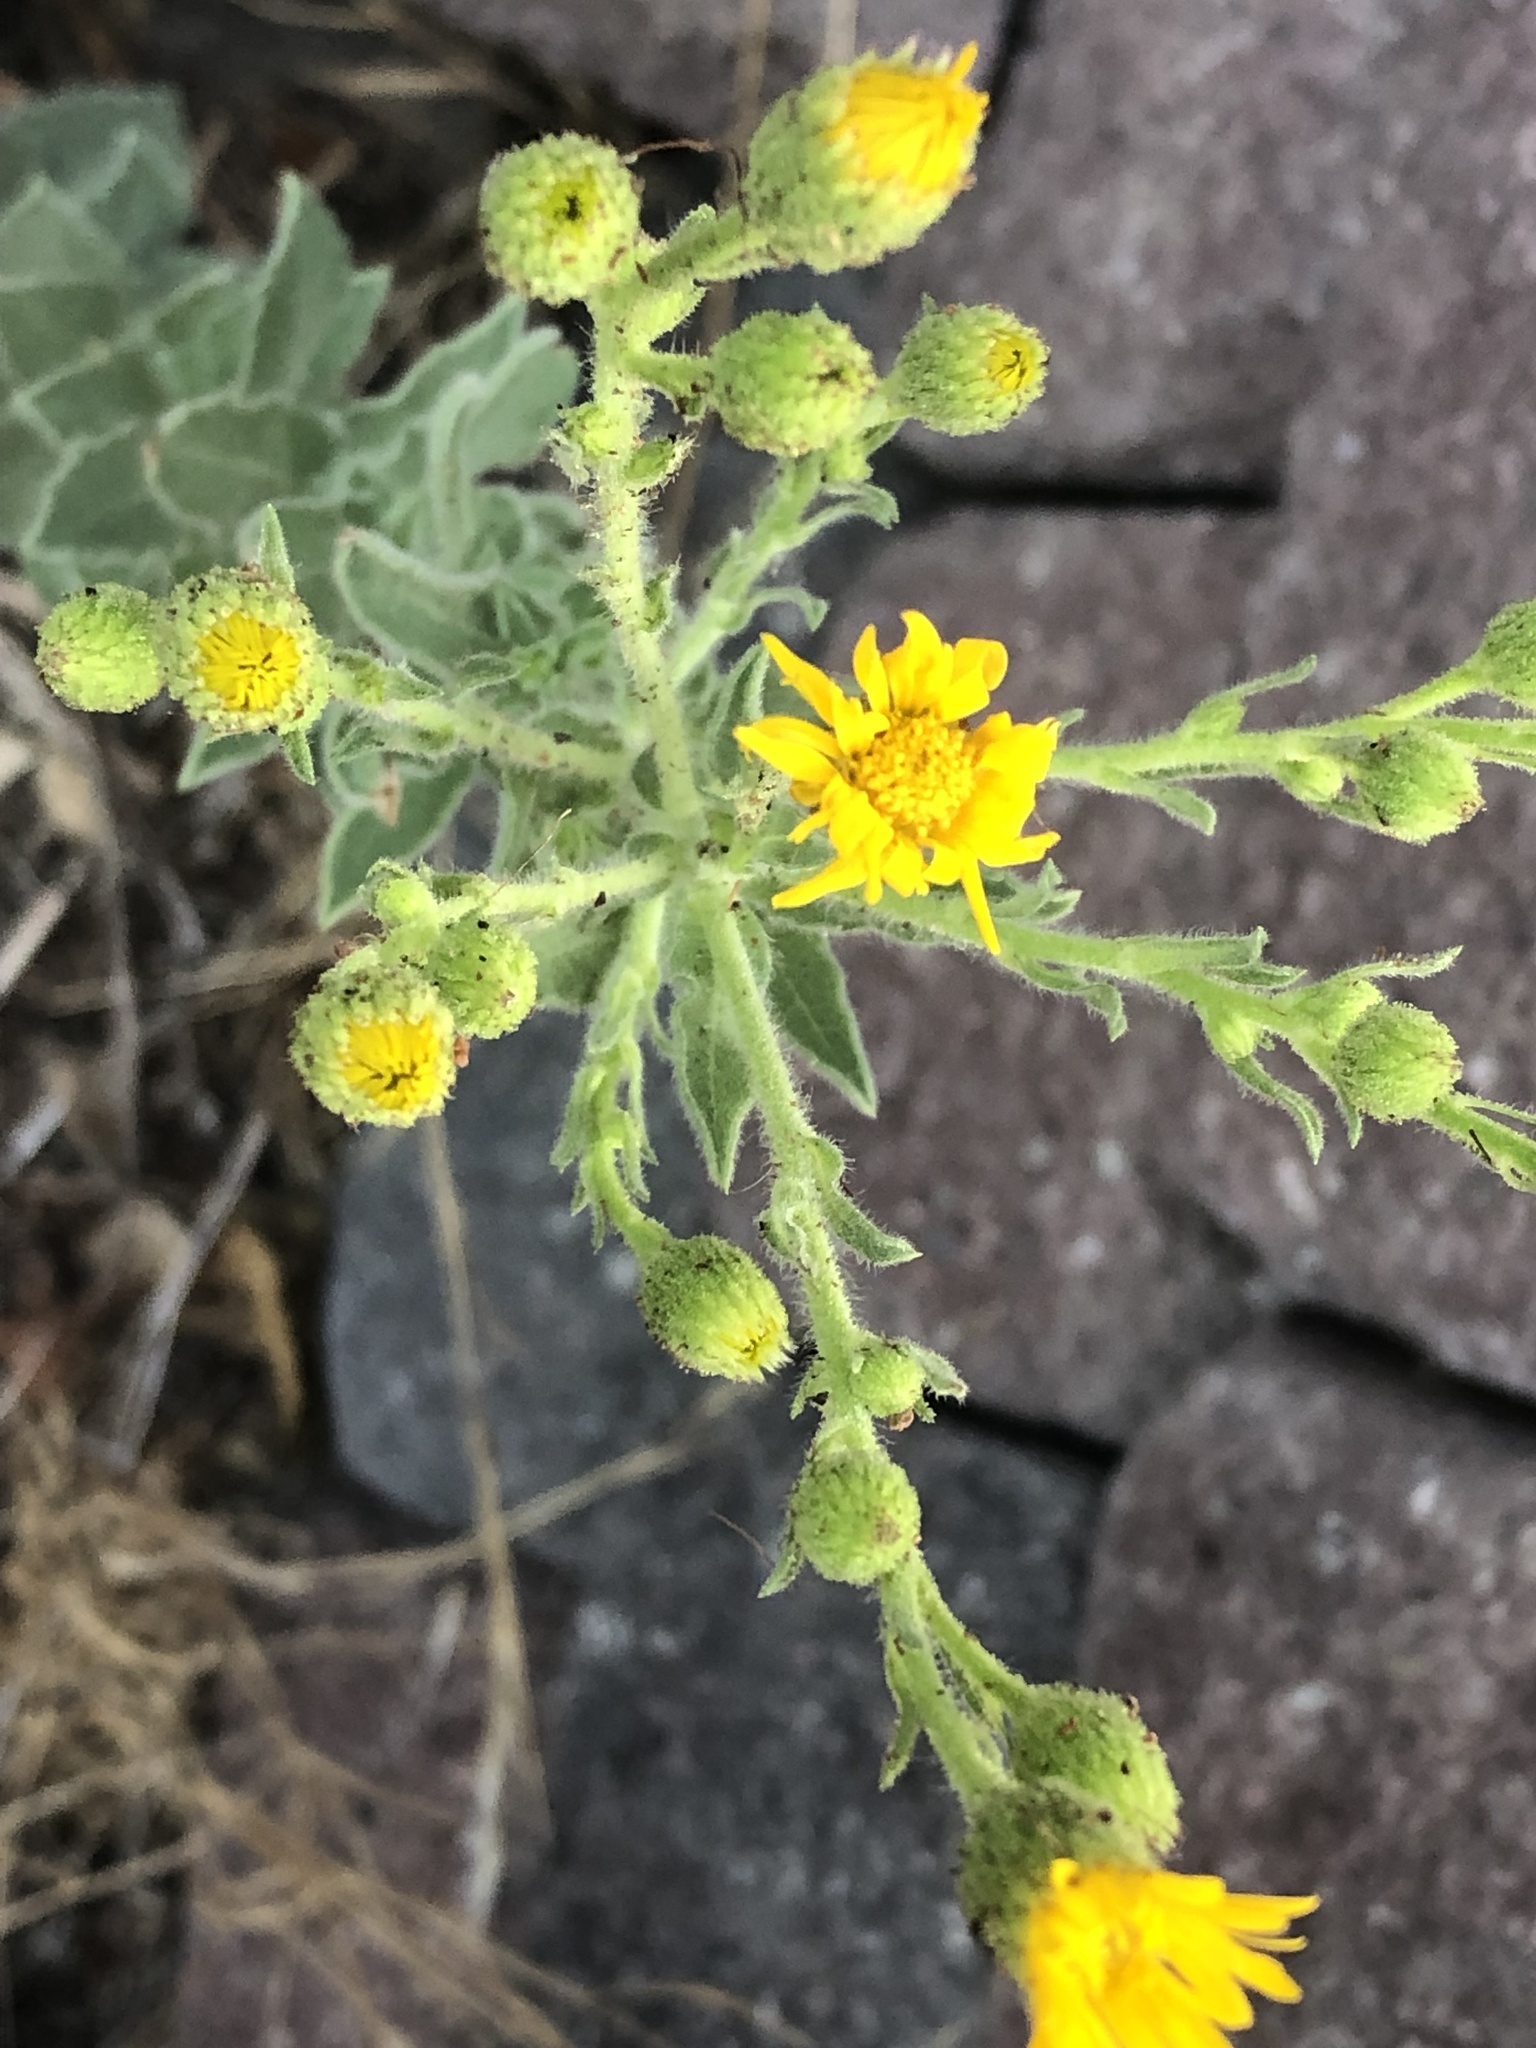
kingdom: Plantae
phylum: Tracheophyta
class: Magnoliopsida
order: Asterales
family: Asteraceae
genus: Heterotheca
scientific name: Heterotheca grandiflora
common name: Telegraphweed
